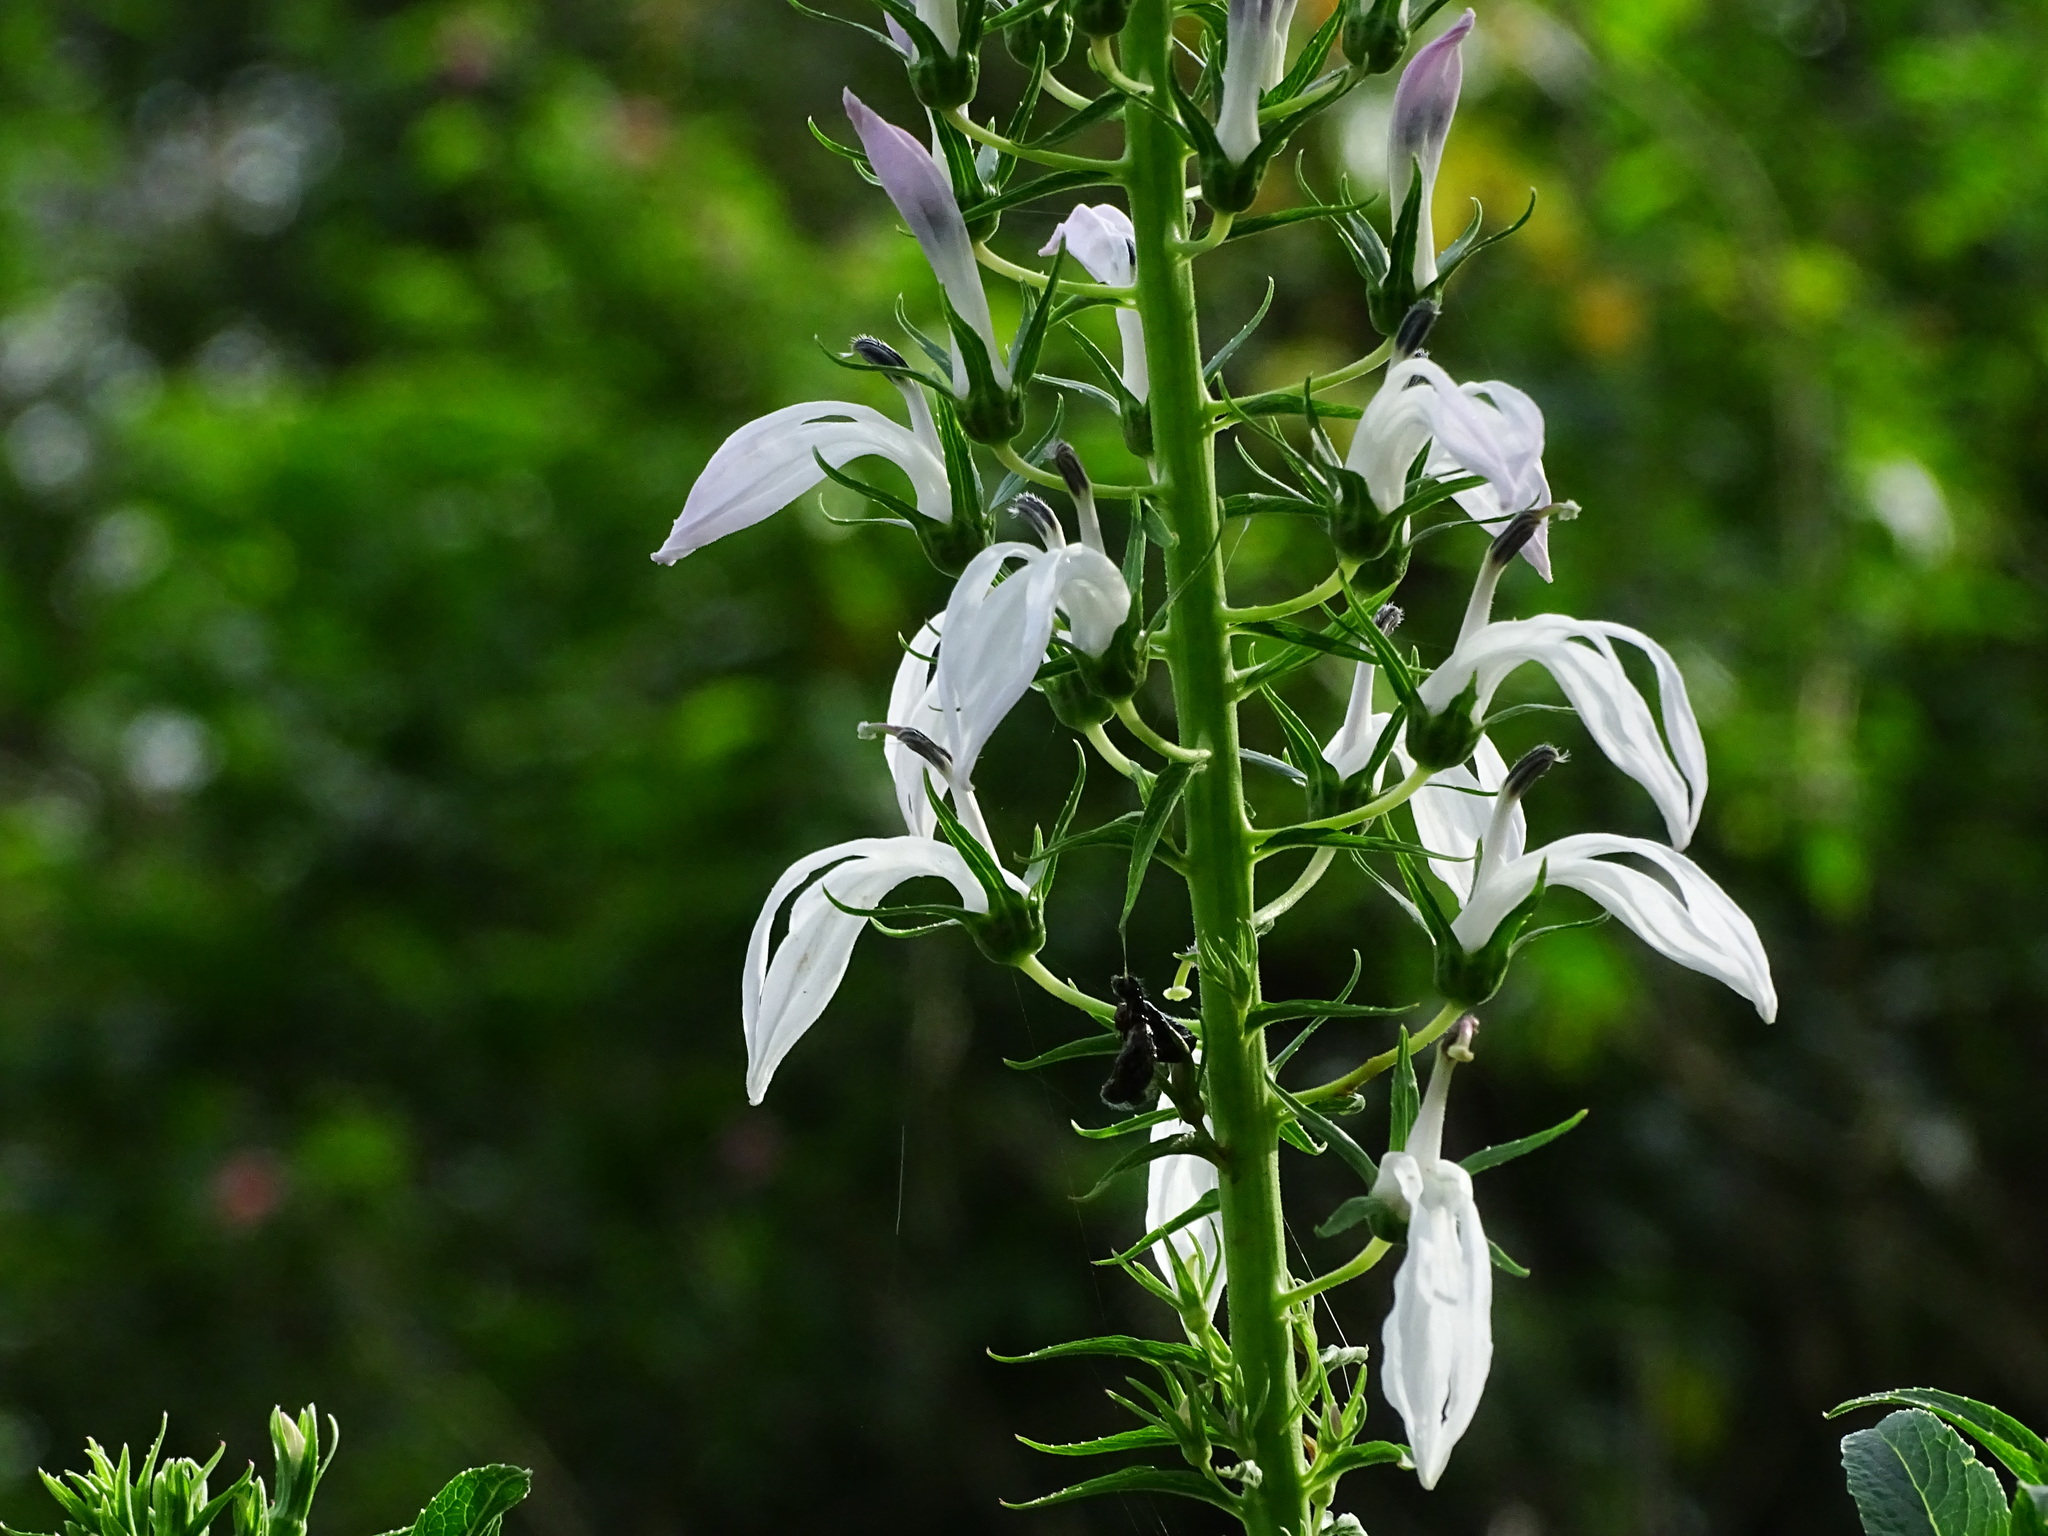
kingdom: Plantae
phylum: Tracheophyta
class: Magnoliopsida
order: Asterales
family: Campanulaceae
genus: Lobelia
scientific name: Lobelia nicotianifolia
